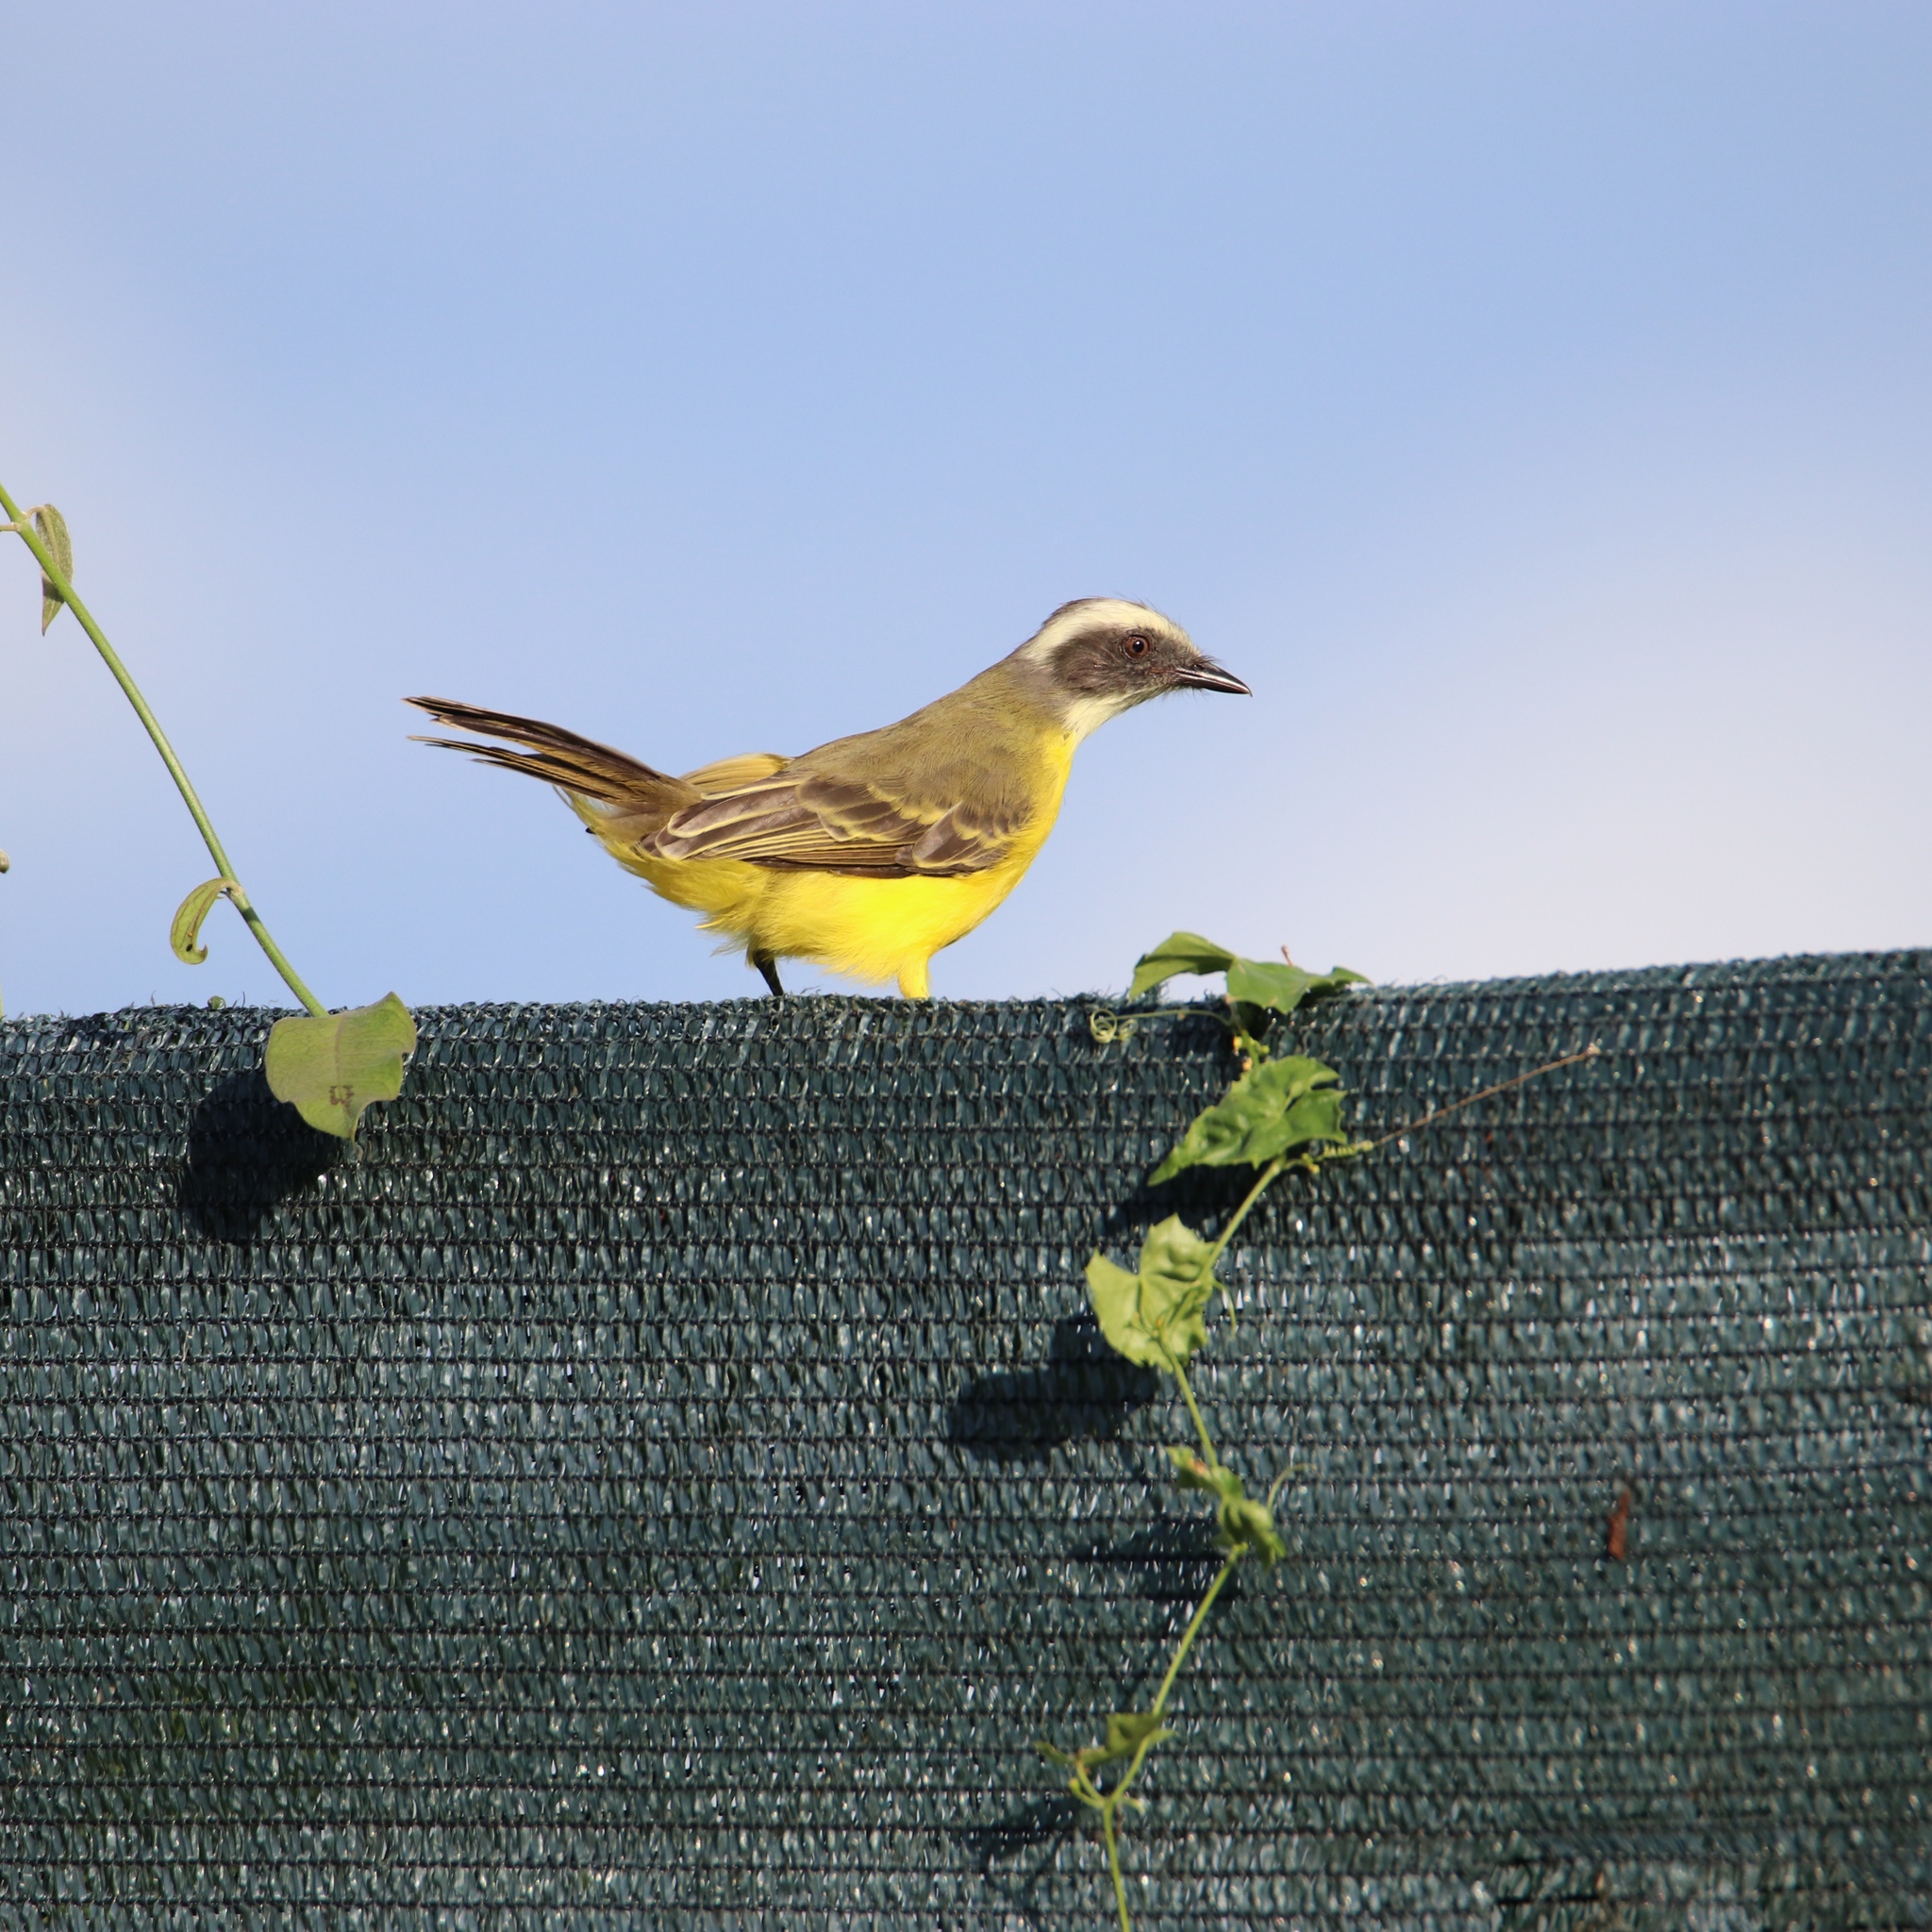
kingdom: Animalia
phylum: Chordata
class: Aves
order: Passeriformes
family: Tyrannidae
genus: Myiozetetes
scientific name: Myiozetetes similis
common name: Social flycatcher
